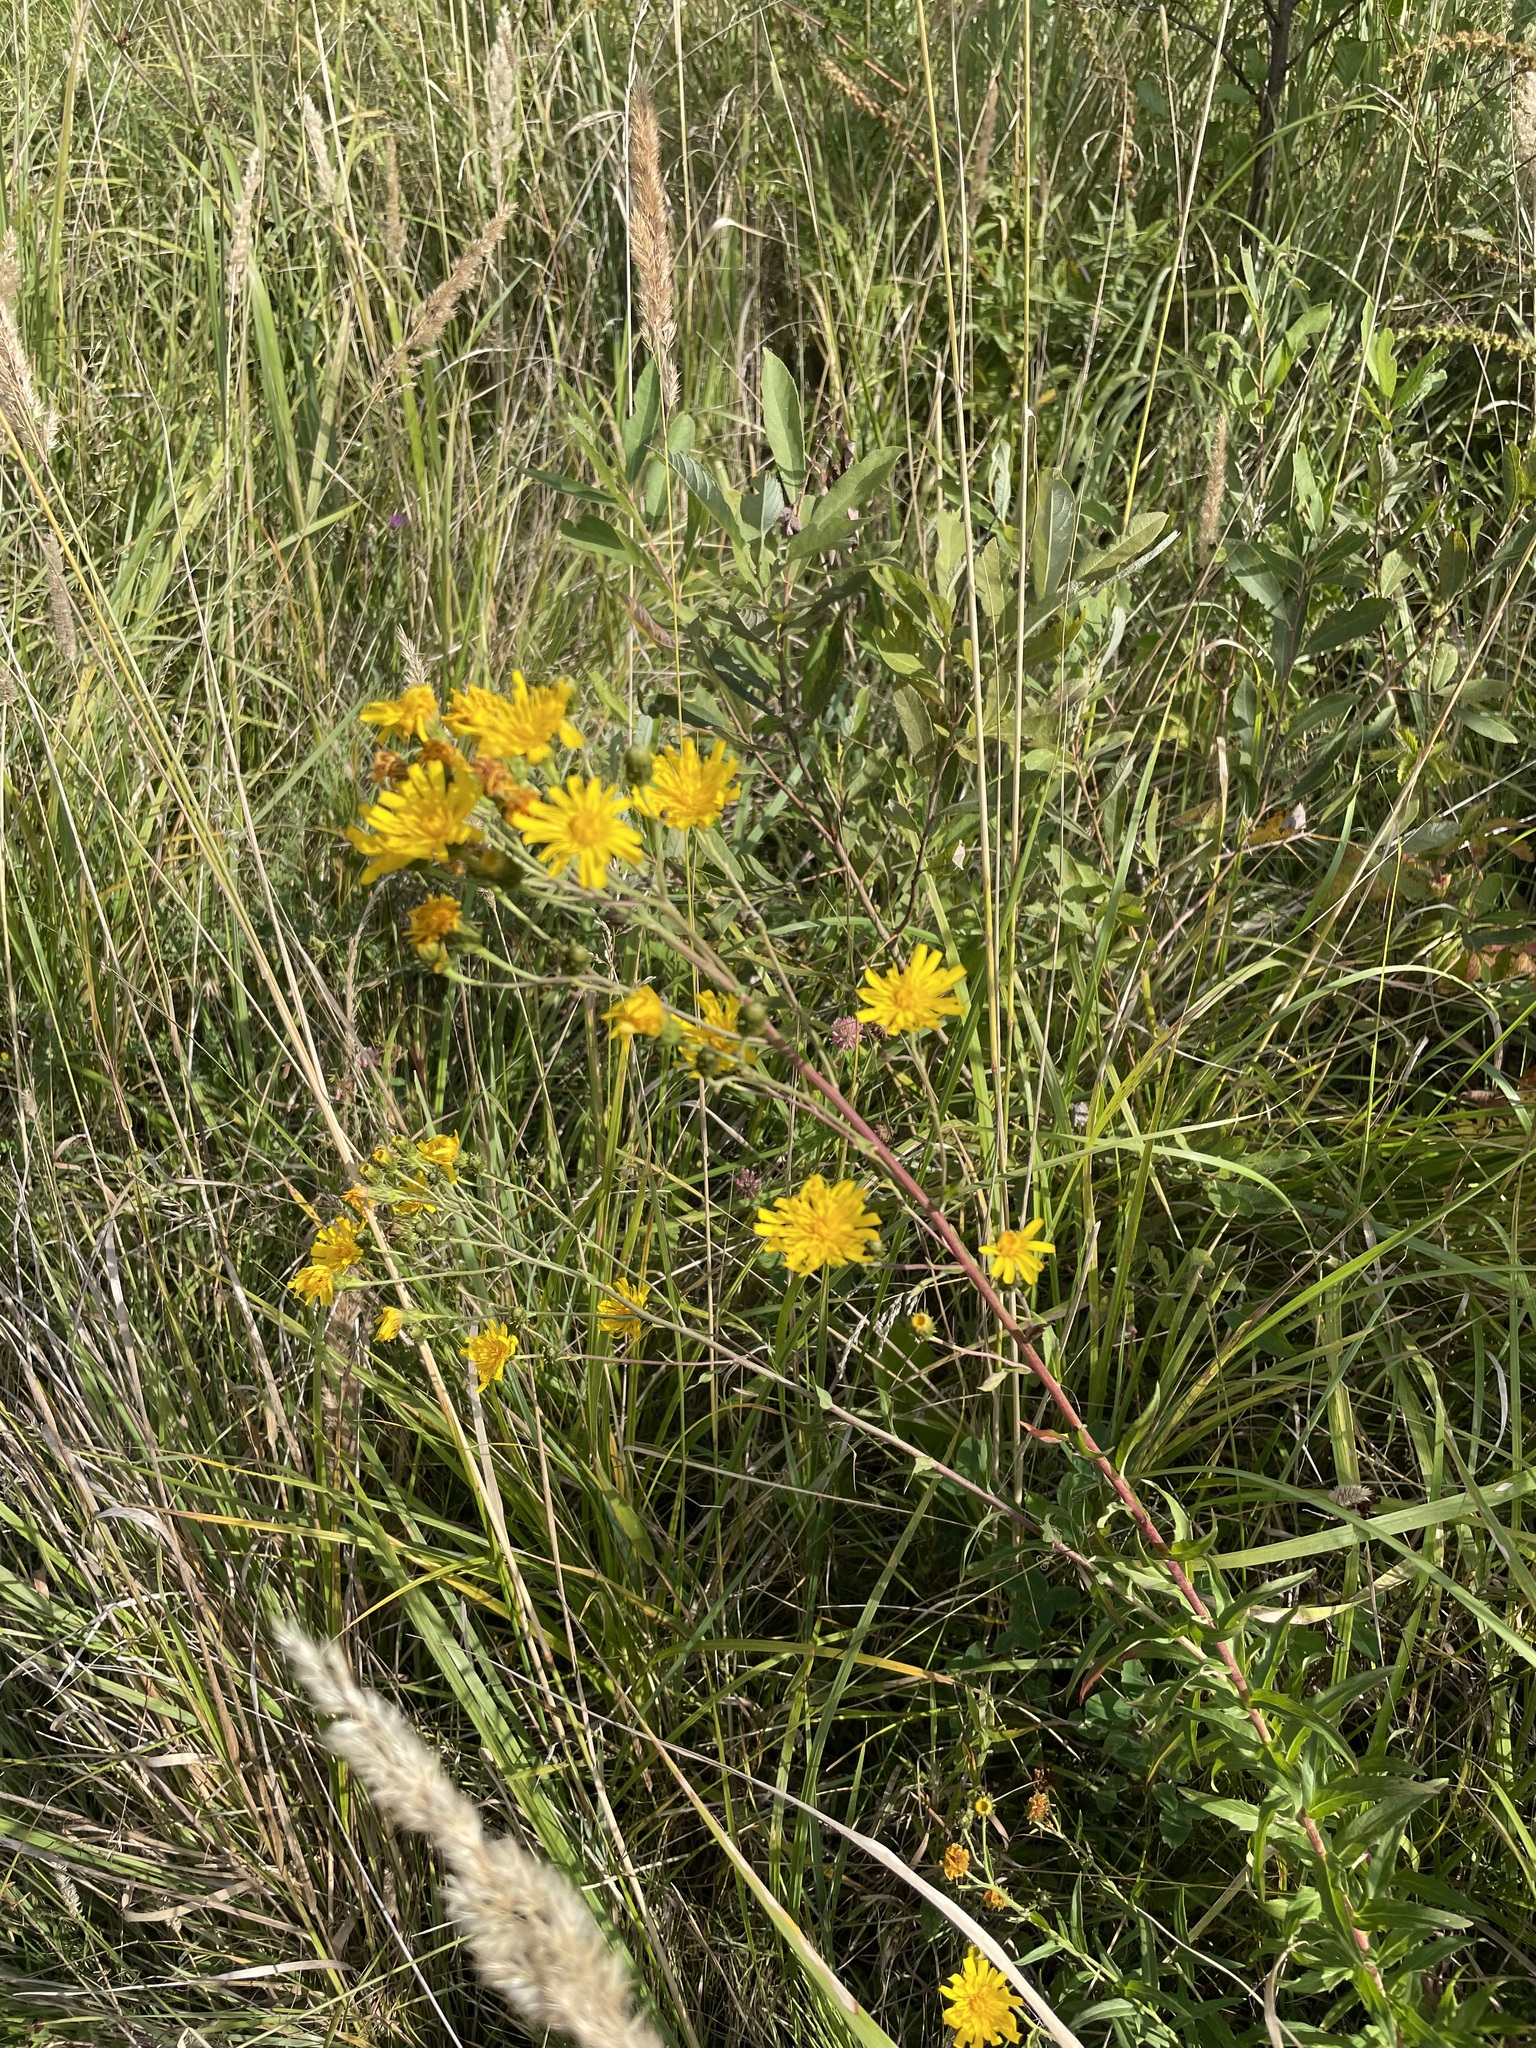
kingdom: Plantae
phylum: Tracheophyta
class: Magnoliopsida
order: Asterales
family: Asteraceae
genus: Hieracium
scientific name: Hieracium umbellatum
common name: Northern hawkweed
